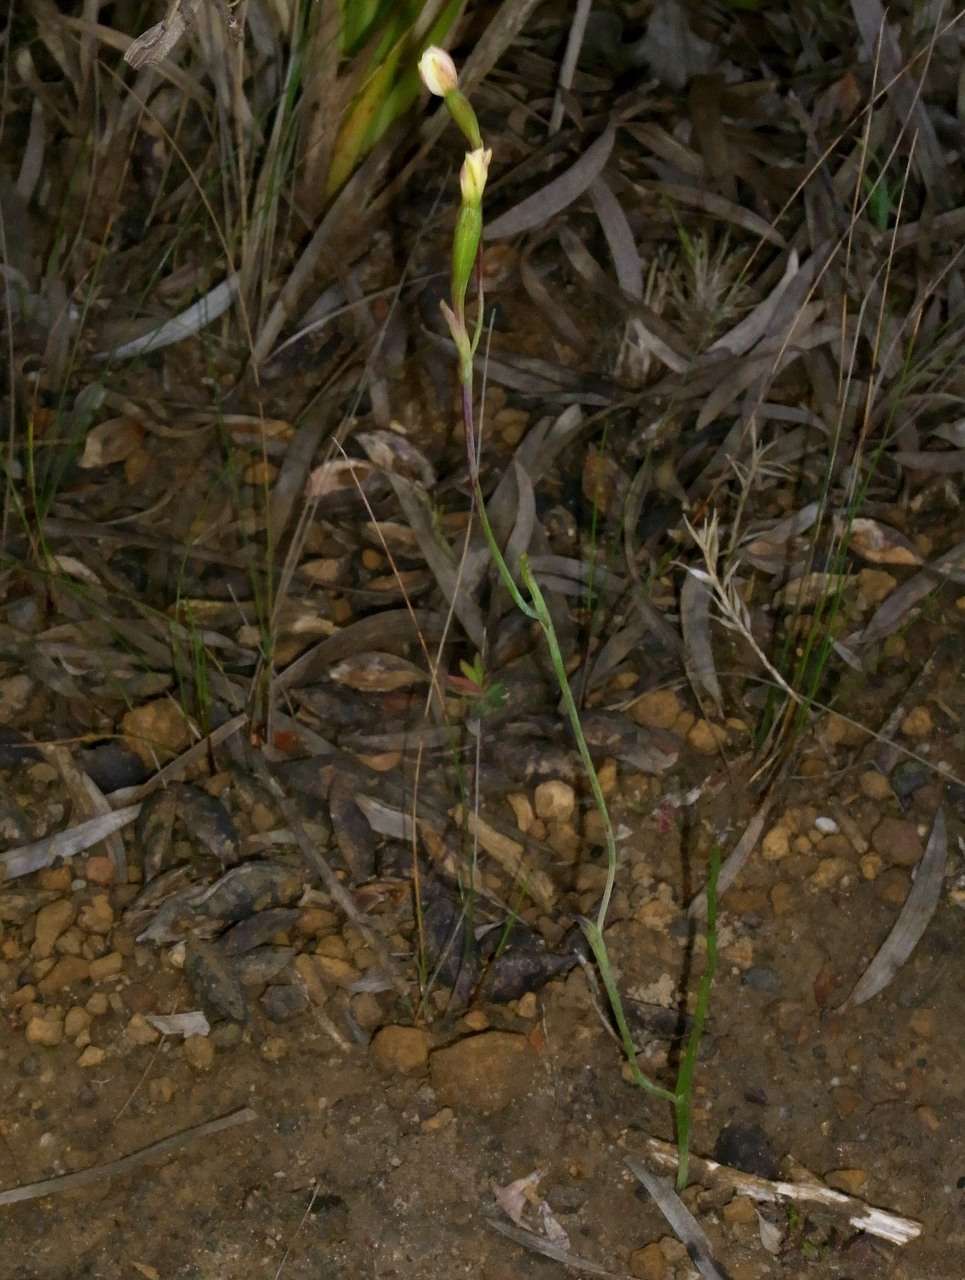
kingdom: Plantae
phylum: Tracheophyta
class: Liliopsida
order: Asparagales
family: Orchidaceae
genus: Thelymitra
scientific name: Thelymitra flexuosa
